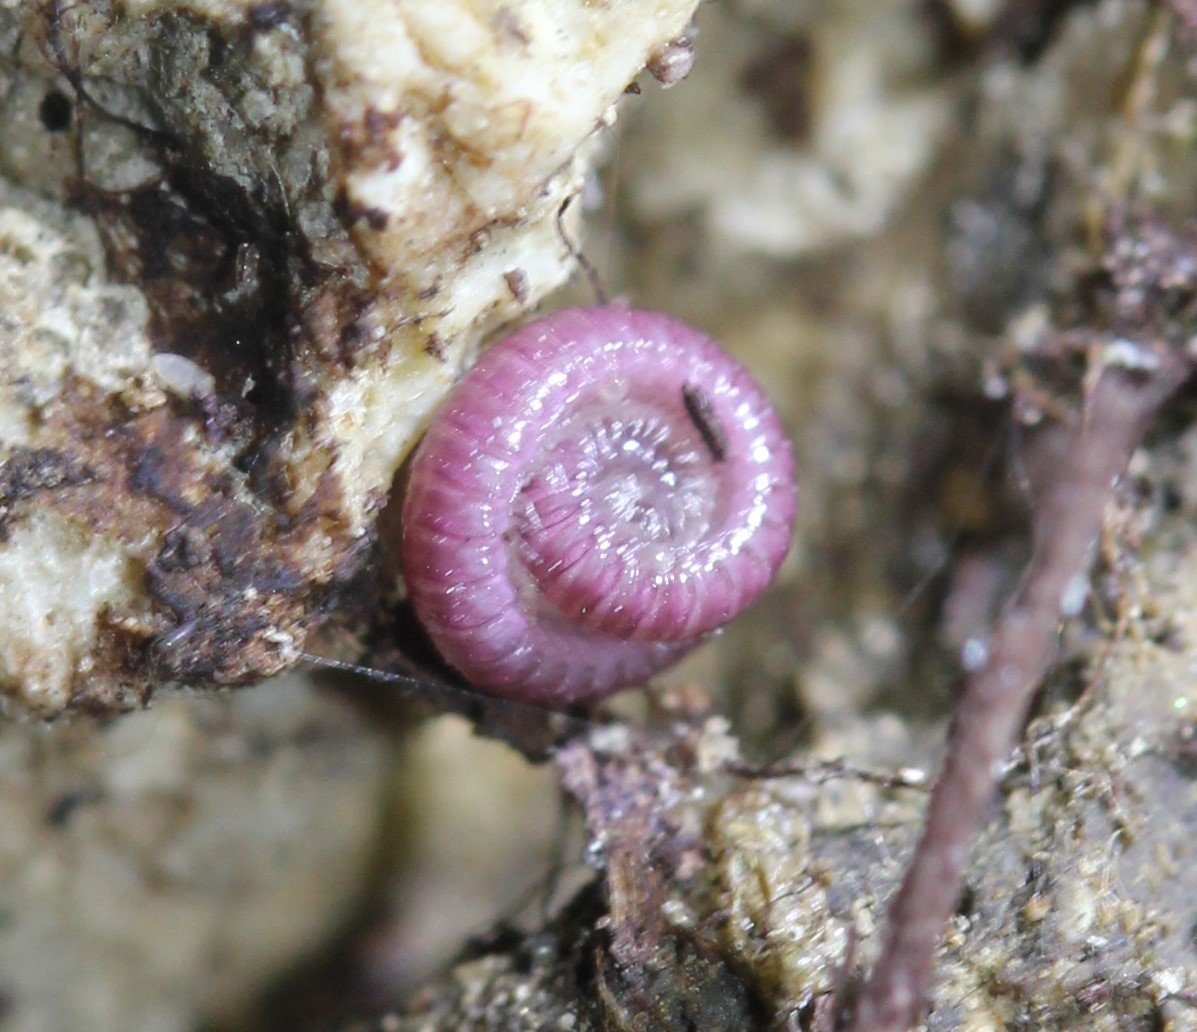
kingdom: Animalia
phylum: Arthropoda
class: Diplopoda
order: Polyzoniida
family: Siphonotidae
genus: Rhinotus
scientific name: Rhinotus purpureus
